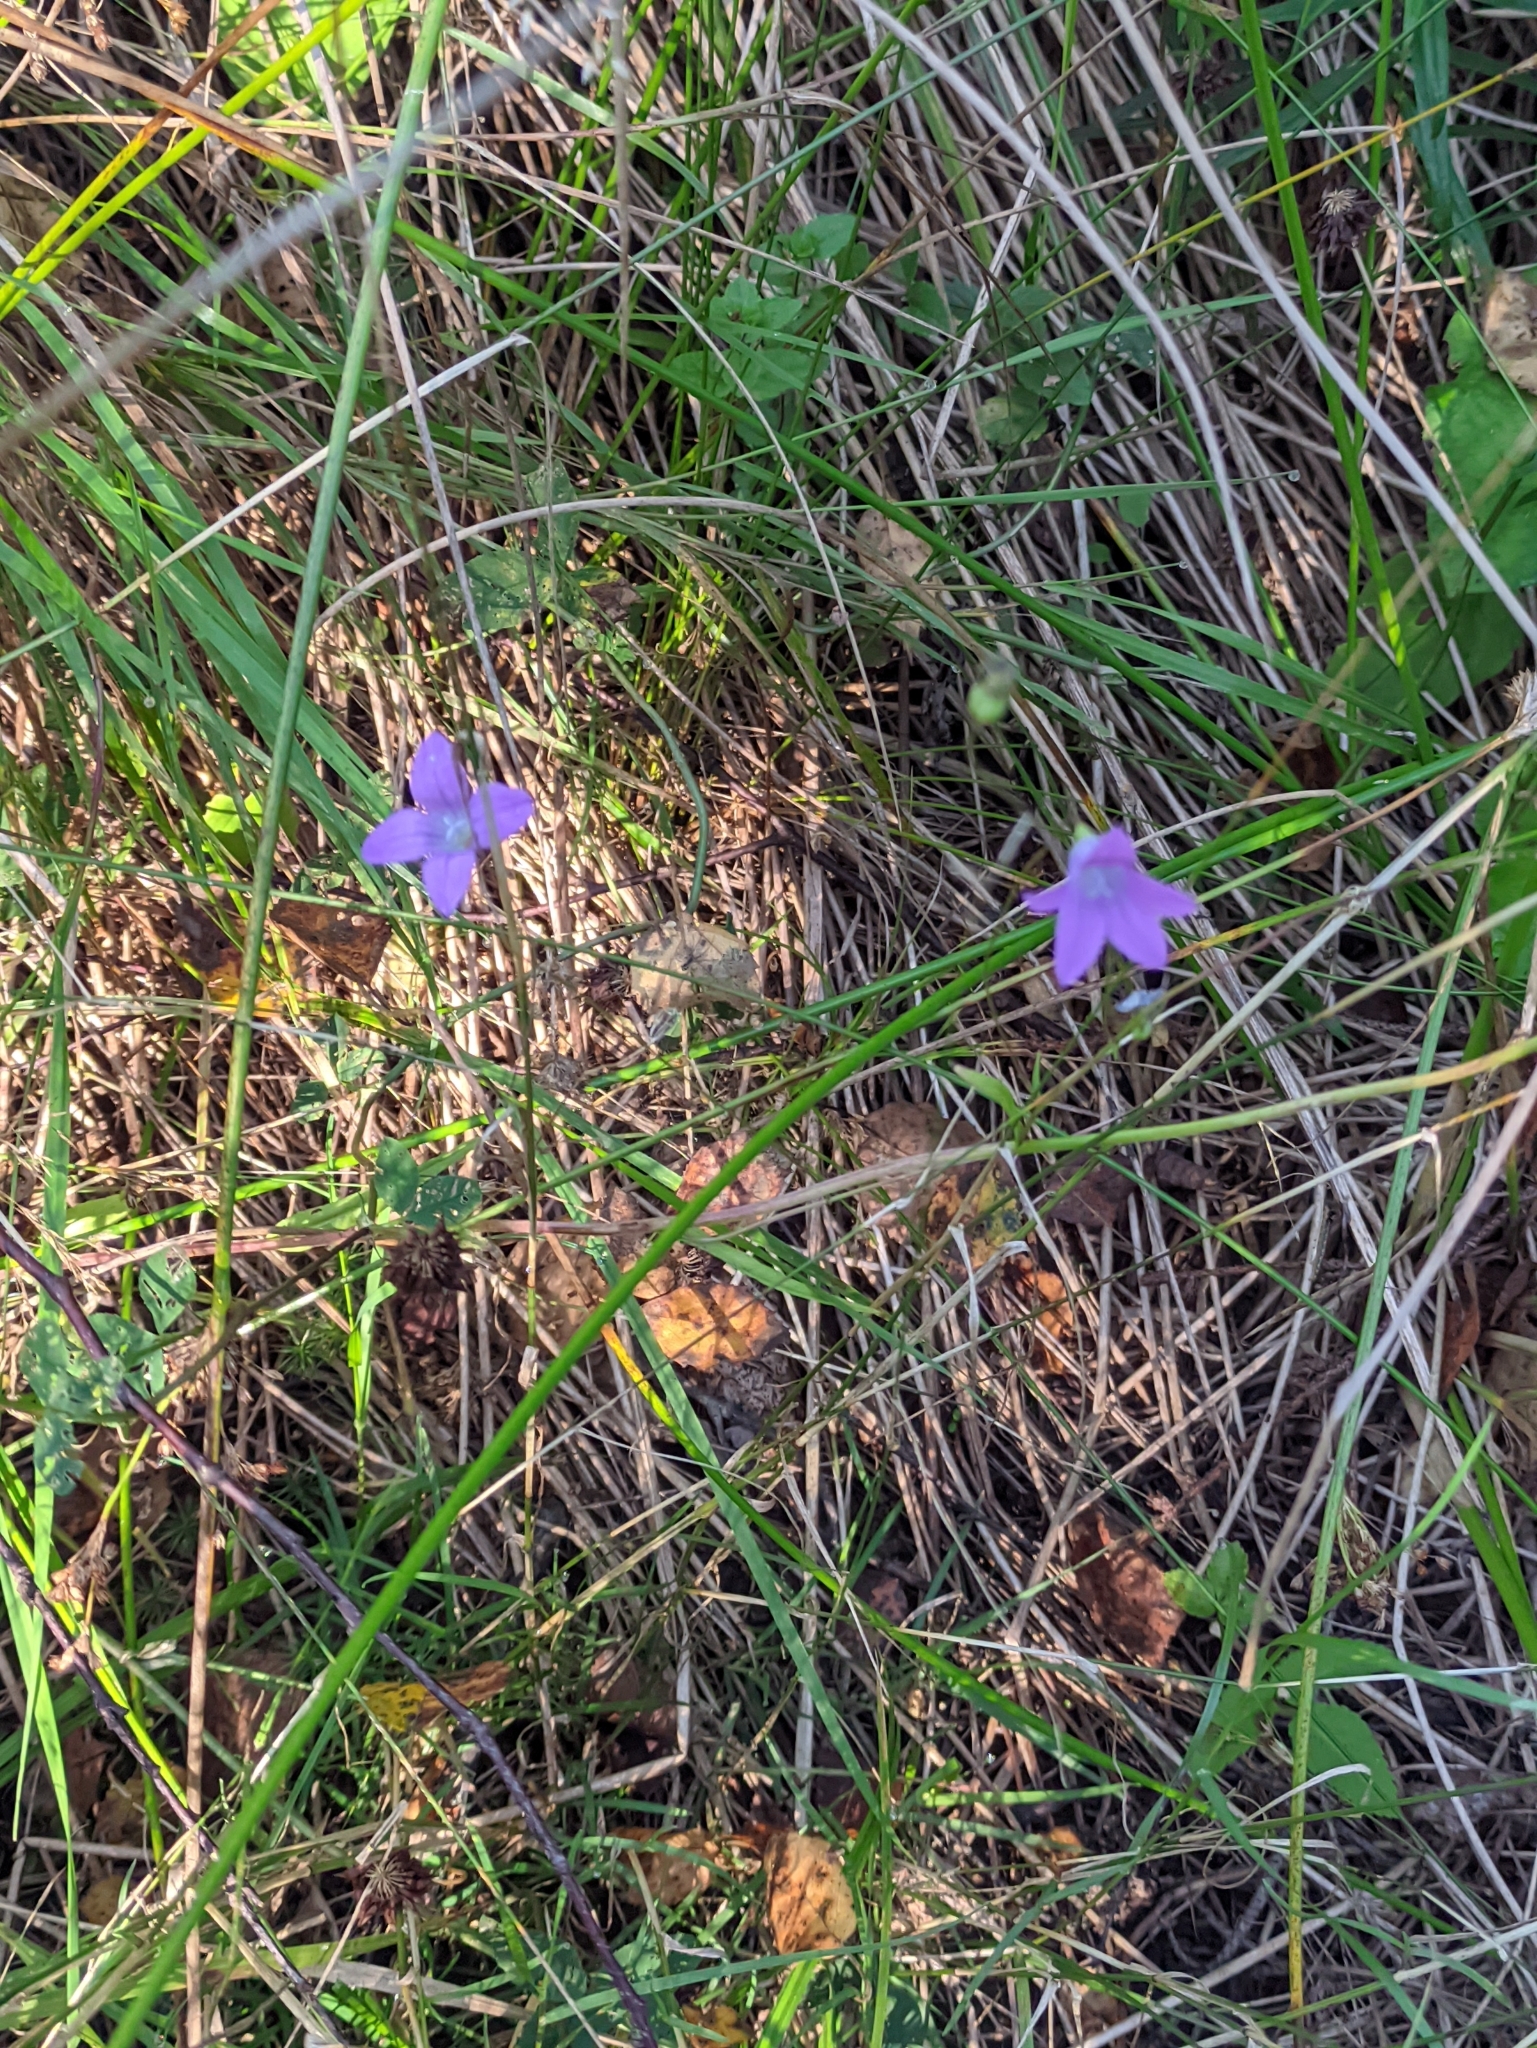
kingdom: Plantae
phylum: Tracheophyta
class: Magnoliopsida
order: Asterales
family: Campanulaceae
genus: Campanula
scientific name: Campanula patula
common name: Spreading bellflower
